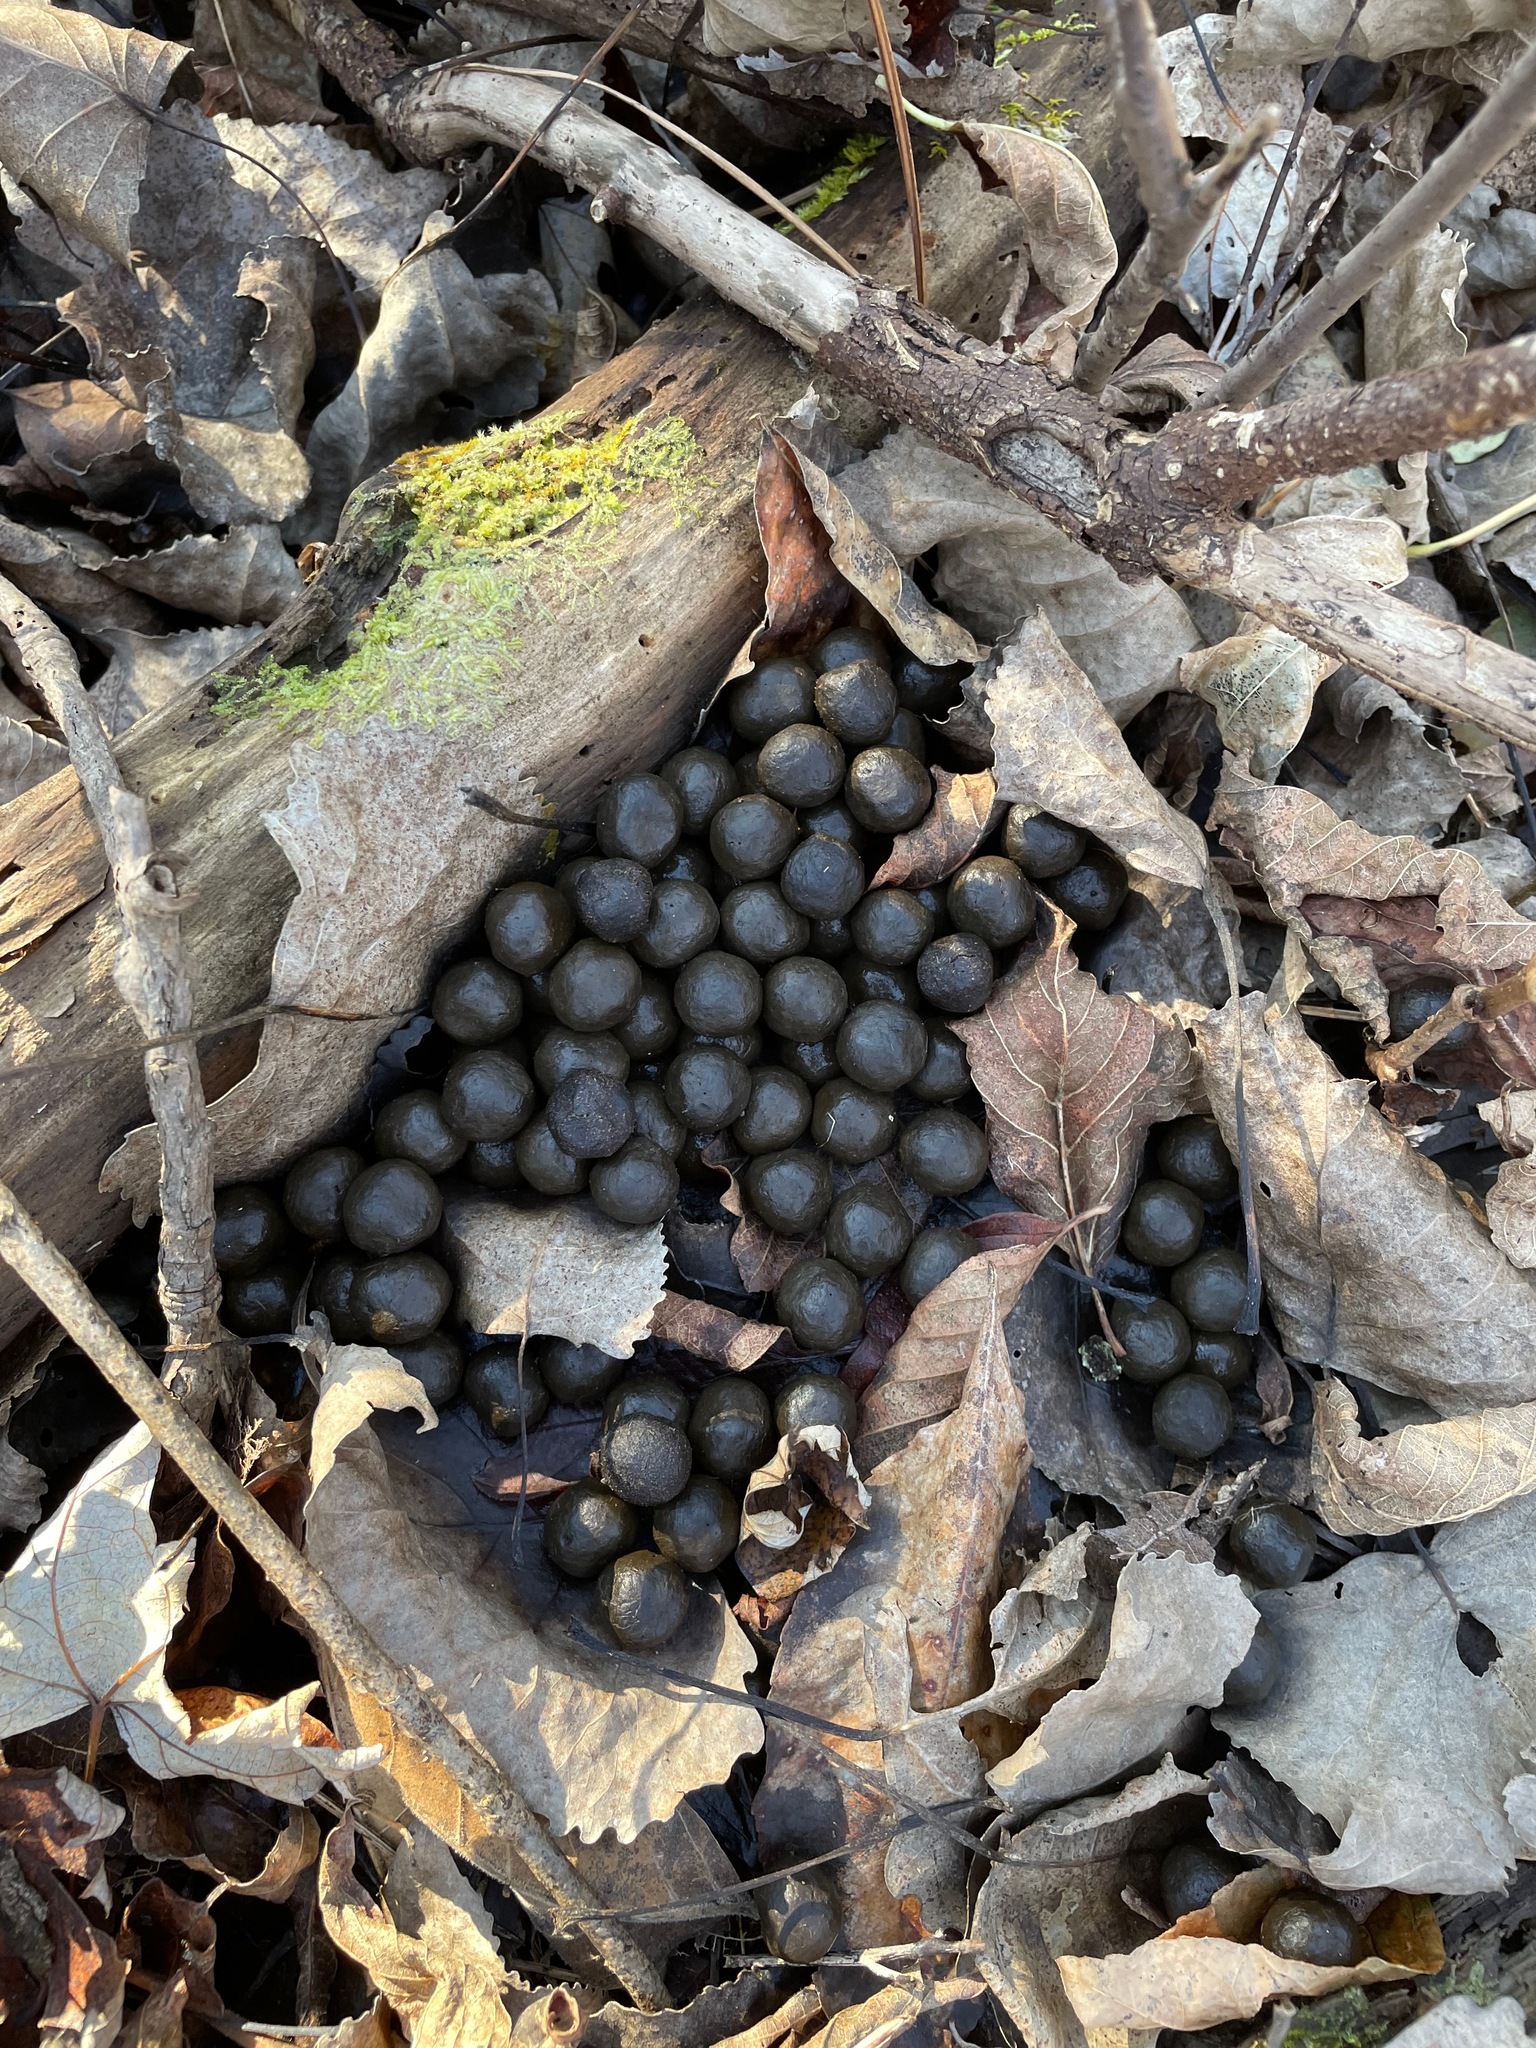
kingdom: Animalia
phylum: Chordata
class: Mammalia
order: Artiodactyla
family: Cervidae
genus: Odocoileus
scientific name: Odocoileus virginianus
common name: White-tailed deer
